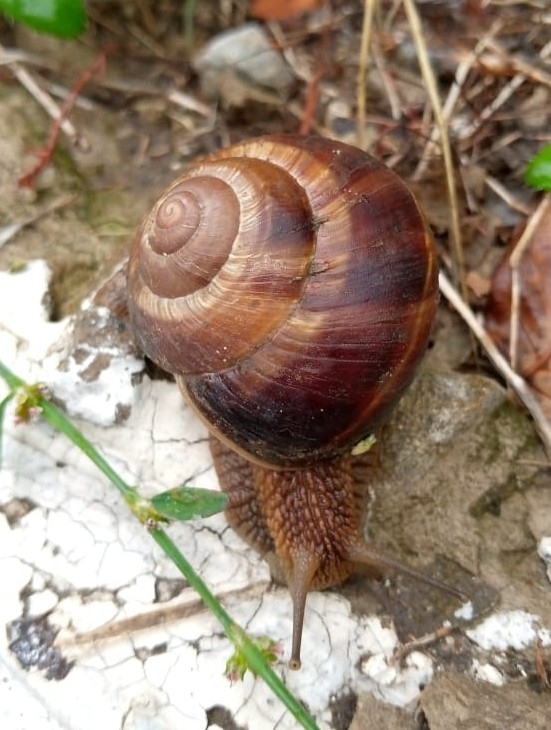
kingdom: Animalia
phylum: Mollusca
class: Gastropoda
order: Stylommatophora
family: Helicidae
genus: Helix
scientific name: Helix lucorum
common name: Turkish snail
